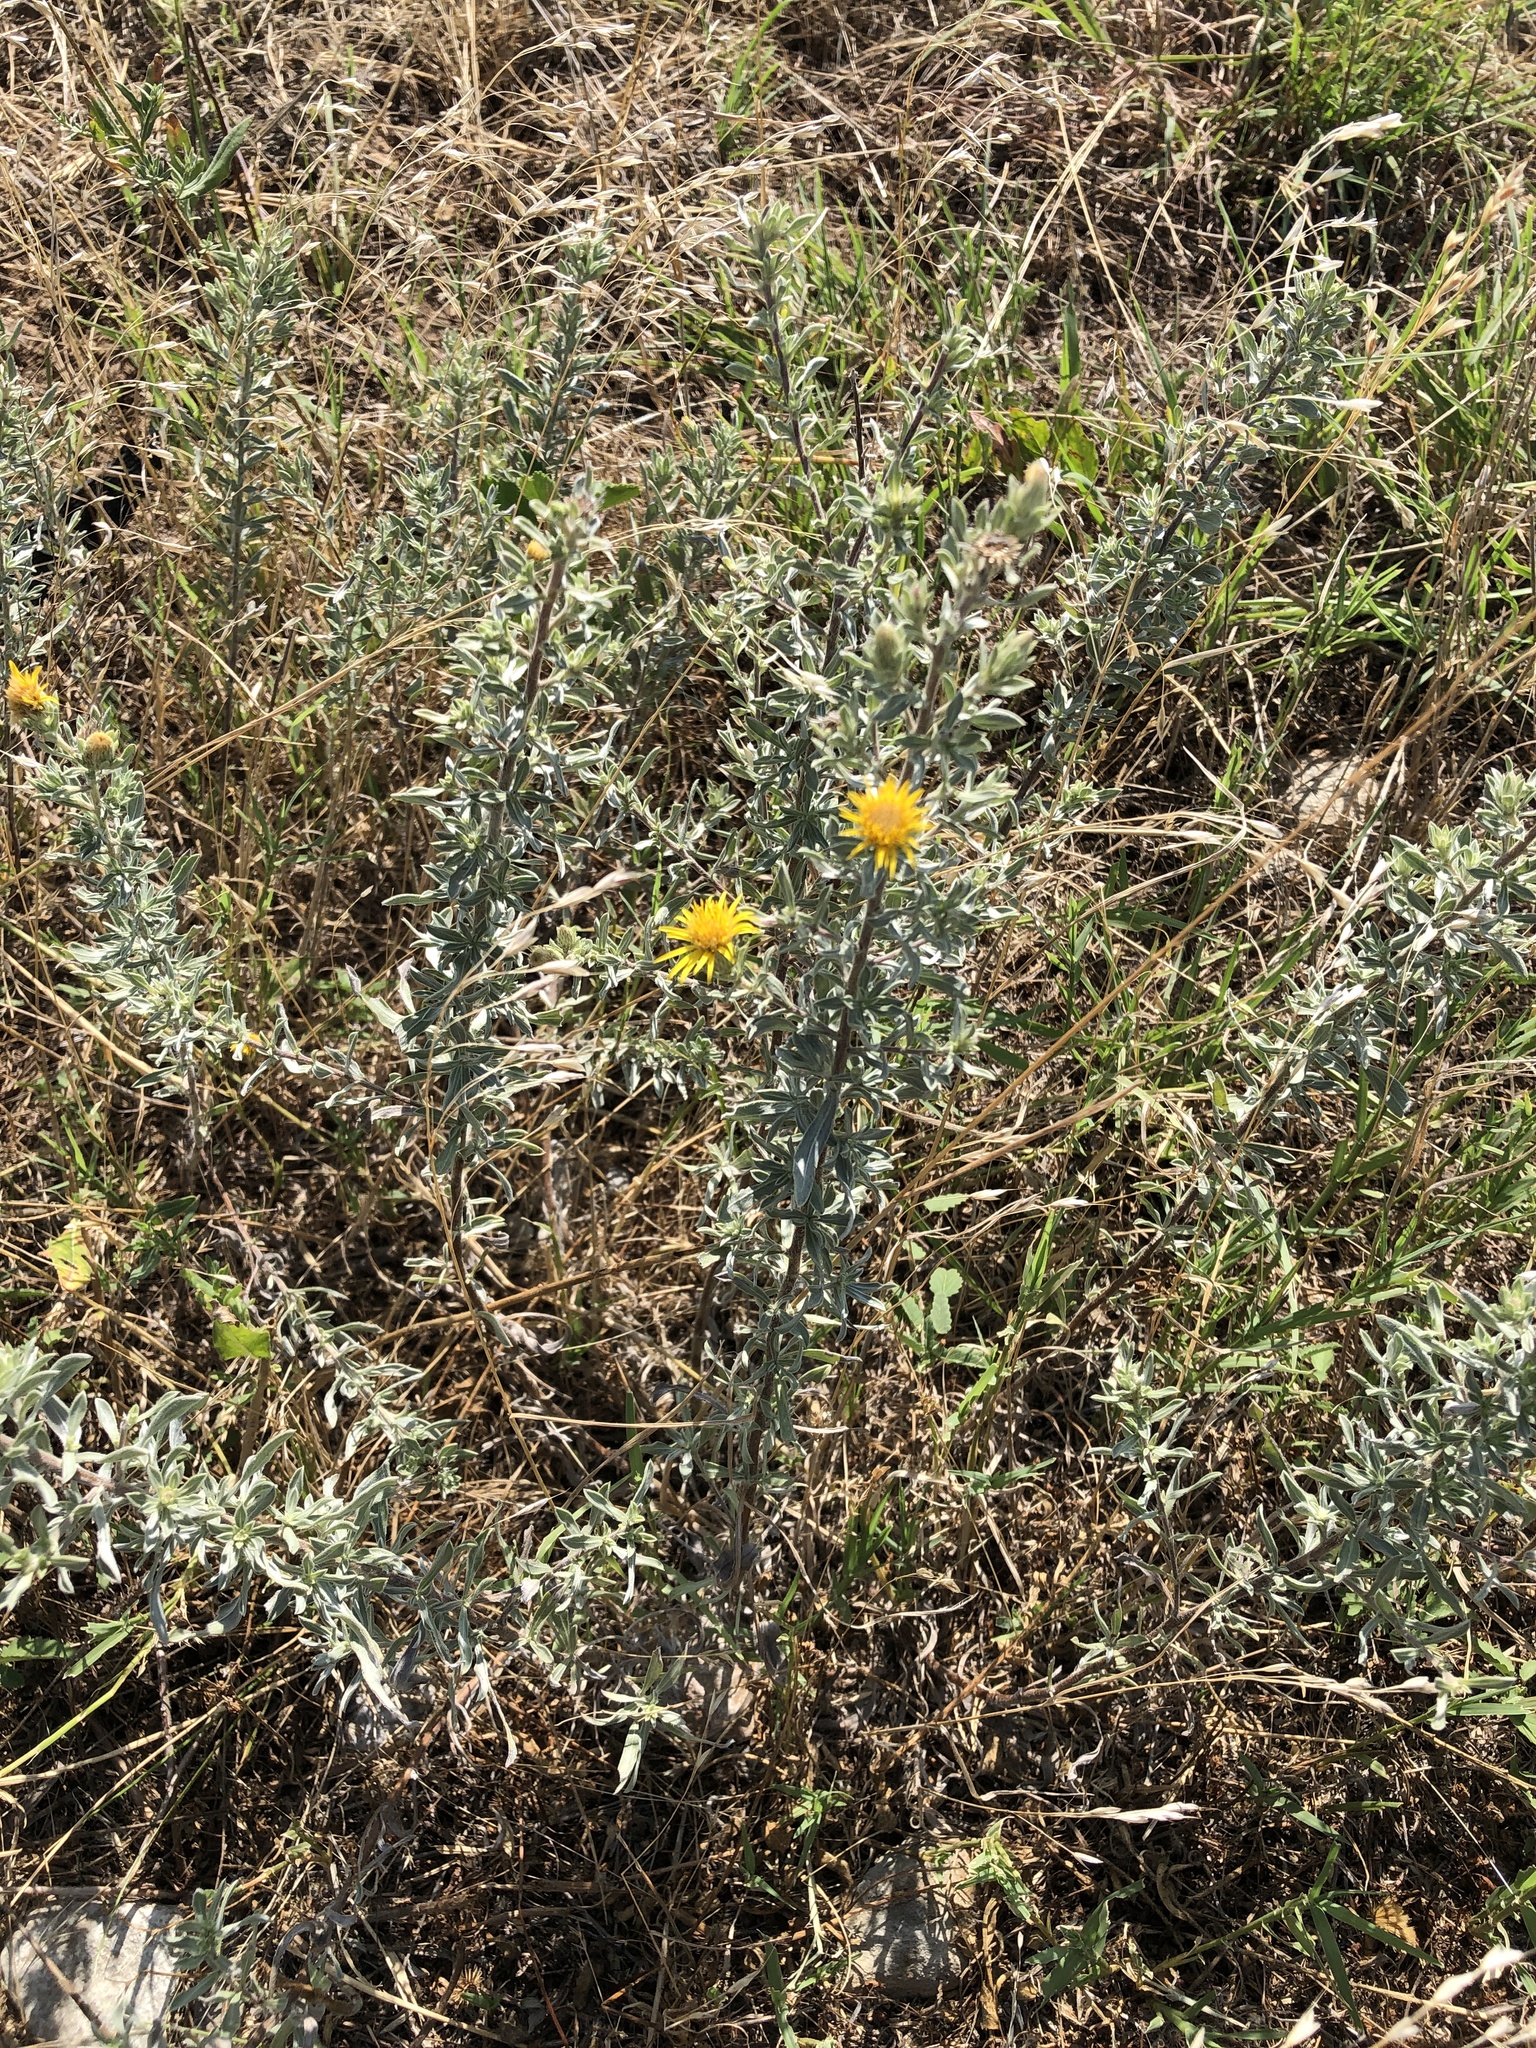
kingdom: Plantae
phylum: Tracheophyta
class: Magnoliopsida
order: Asterales
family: Asteraceae
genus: Heterotheca
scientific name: Heterotheca canescens
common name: Hoary golden-aster
